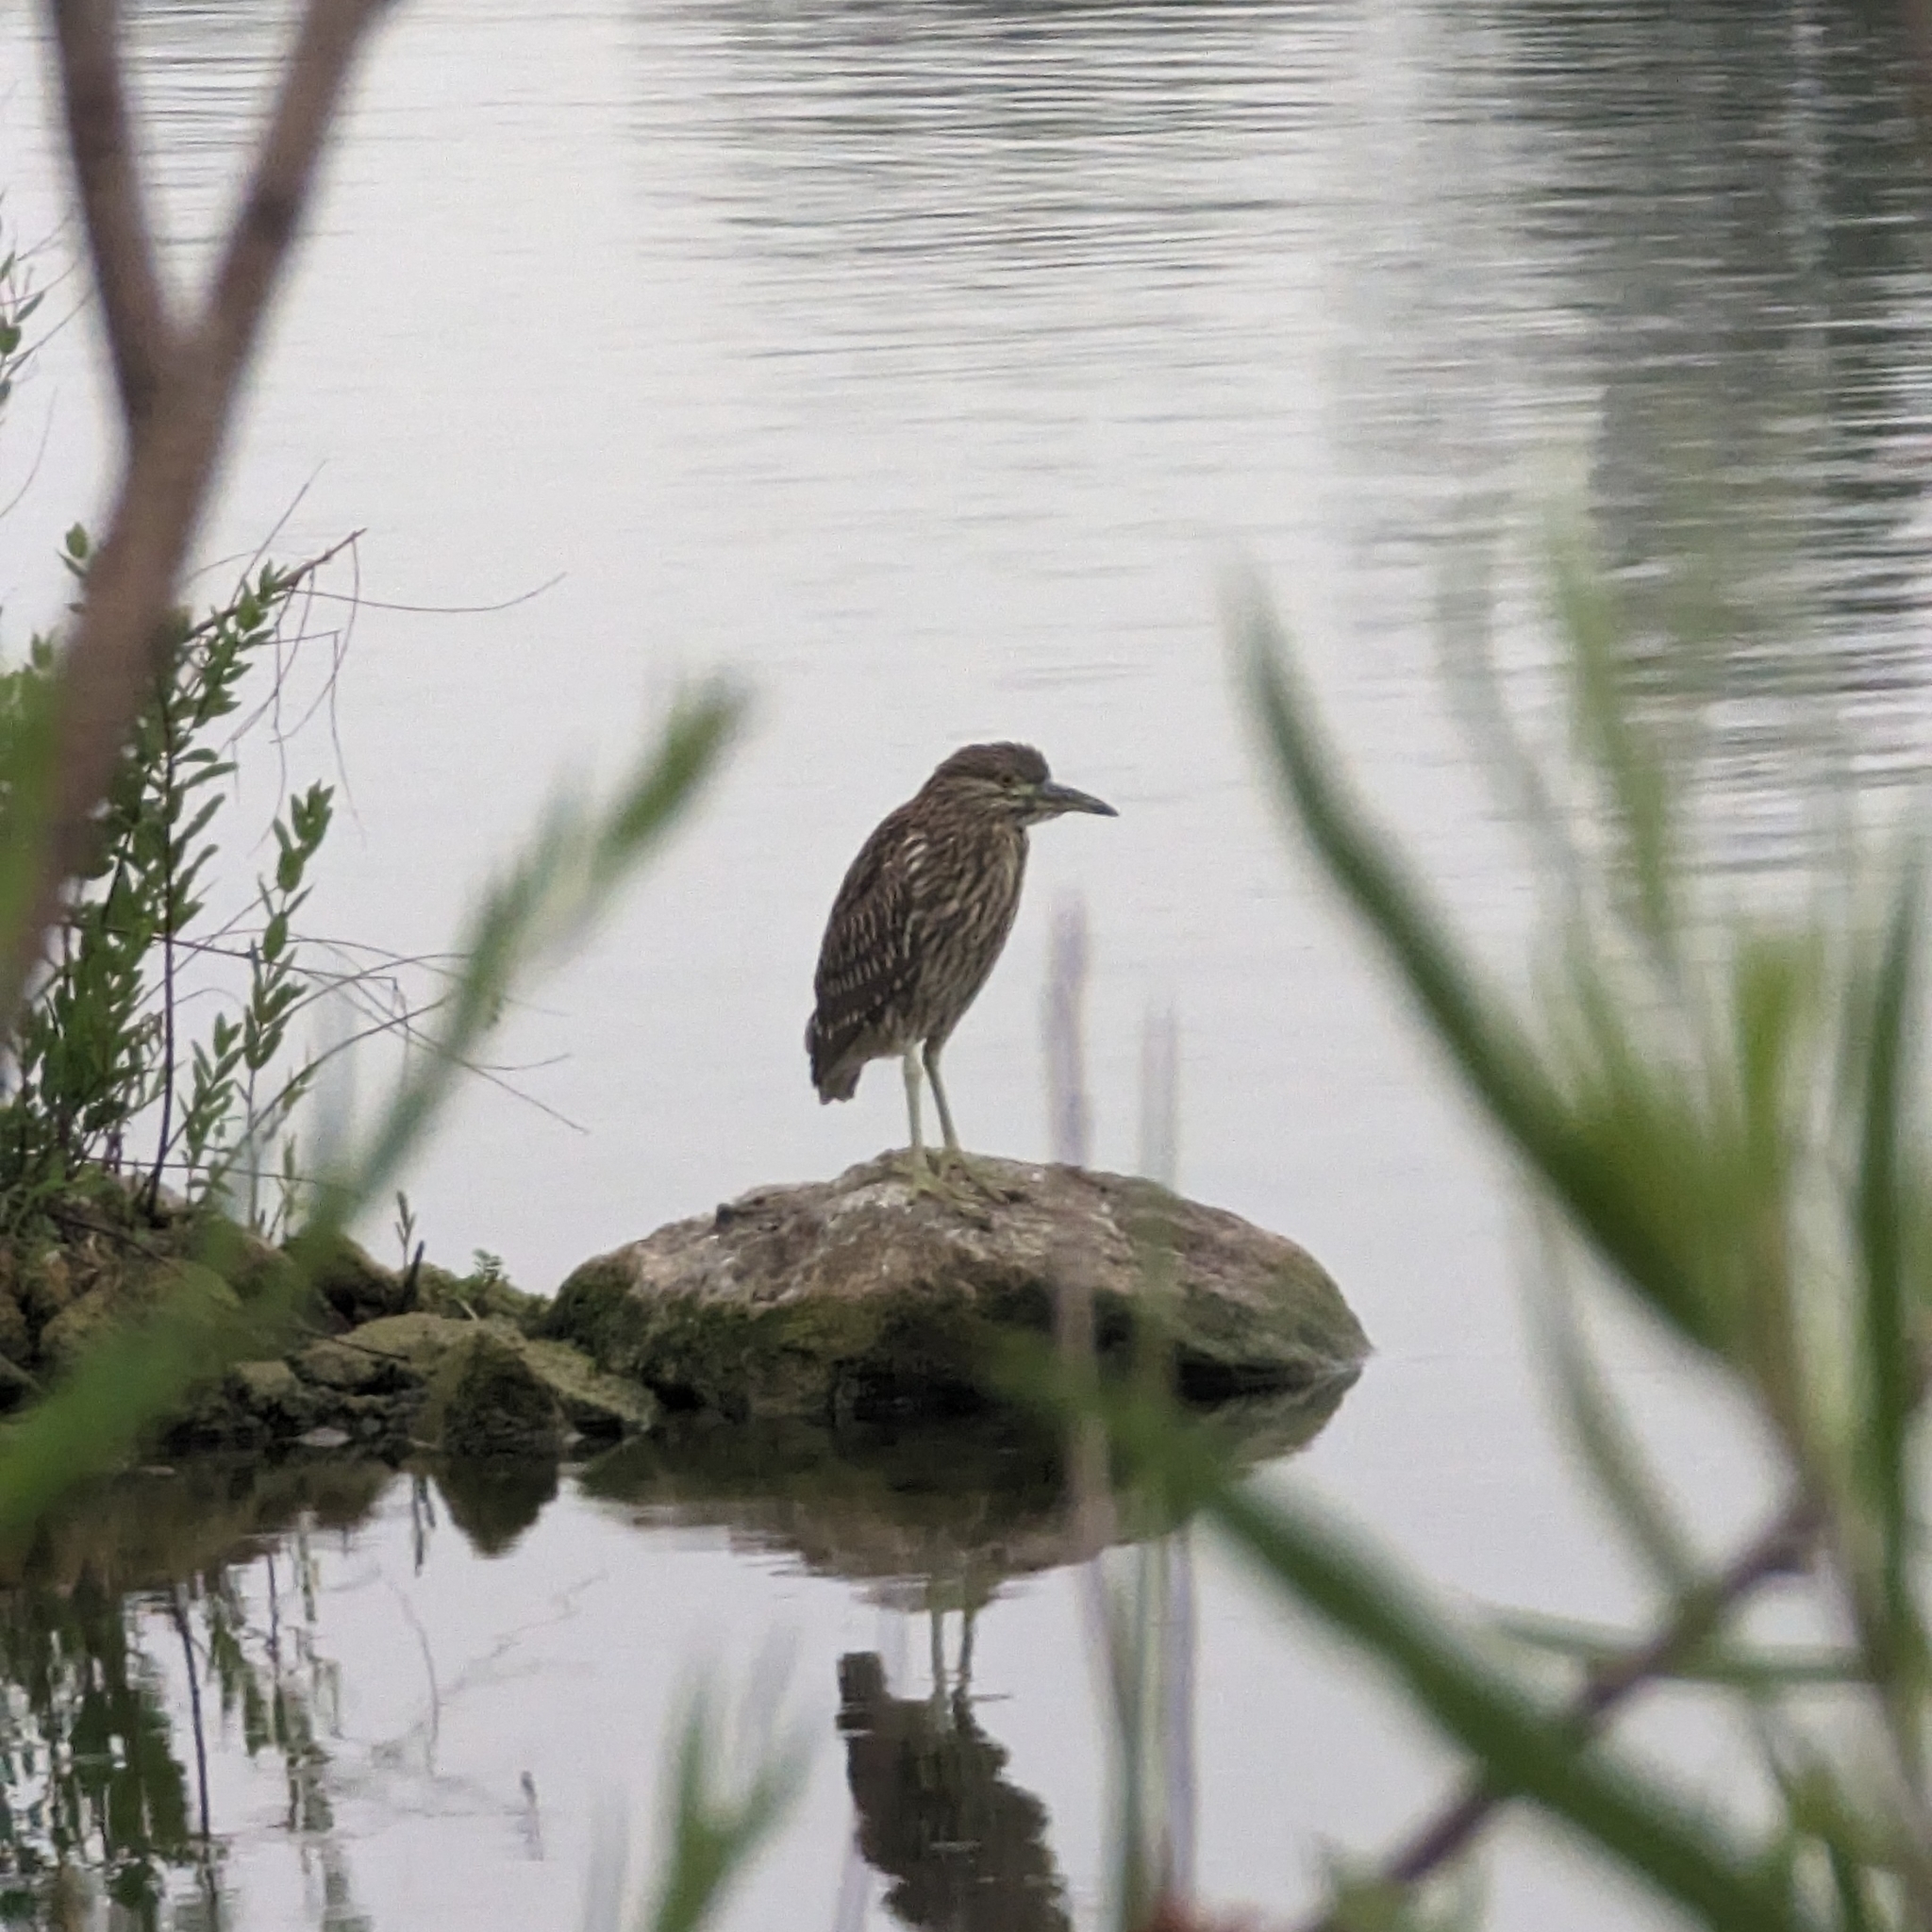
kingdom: Animalia
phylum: Chordata
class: Aves
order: Pelecaniformes
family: Ardeidae
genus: Nycticorax
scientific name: Nycticorax nycticorax
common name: Black-crowned night heron
